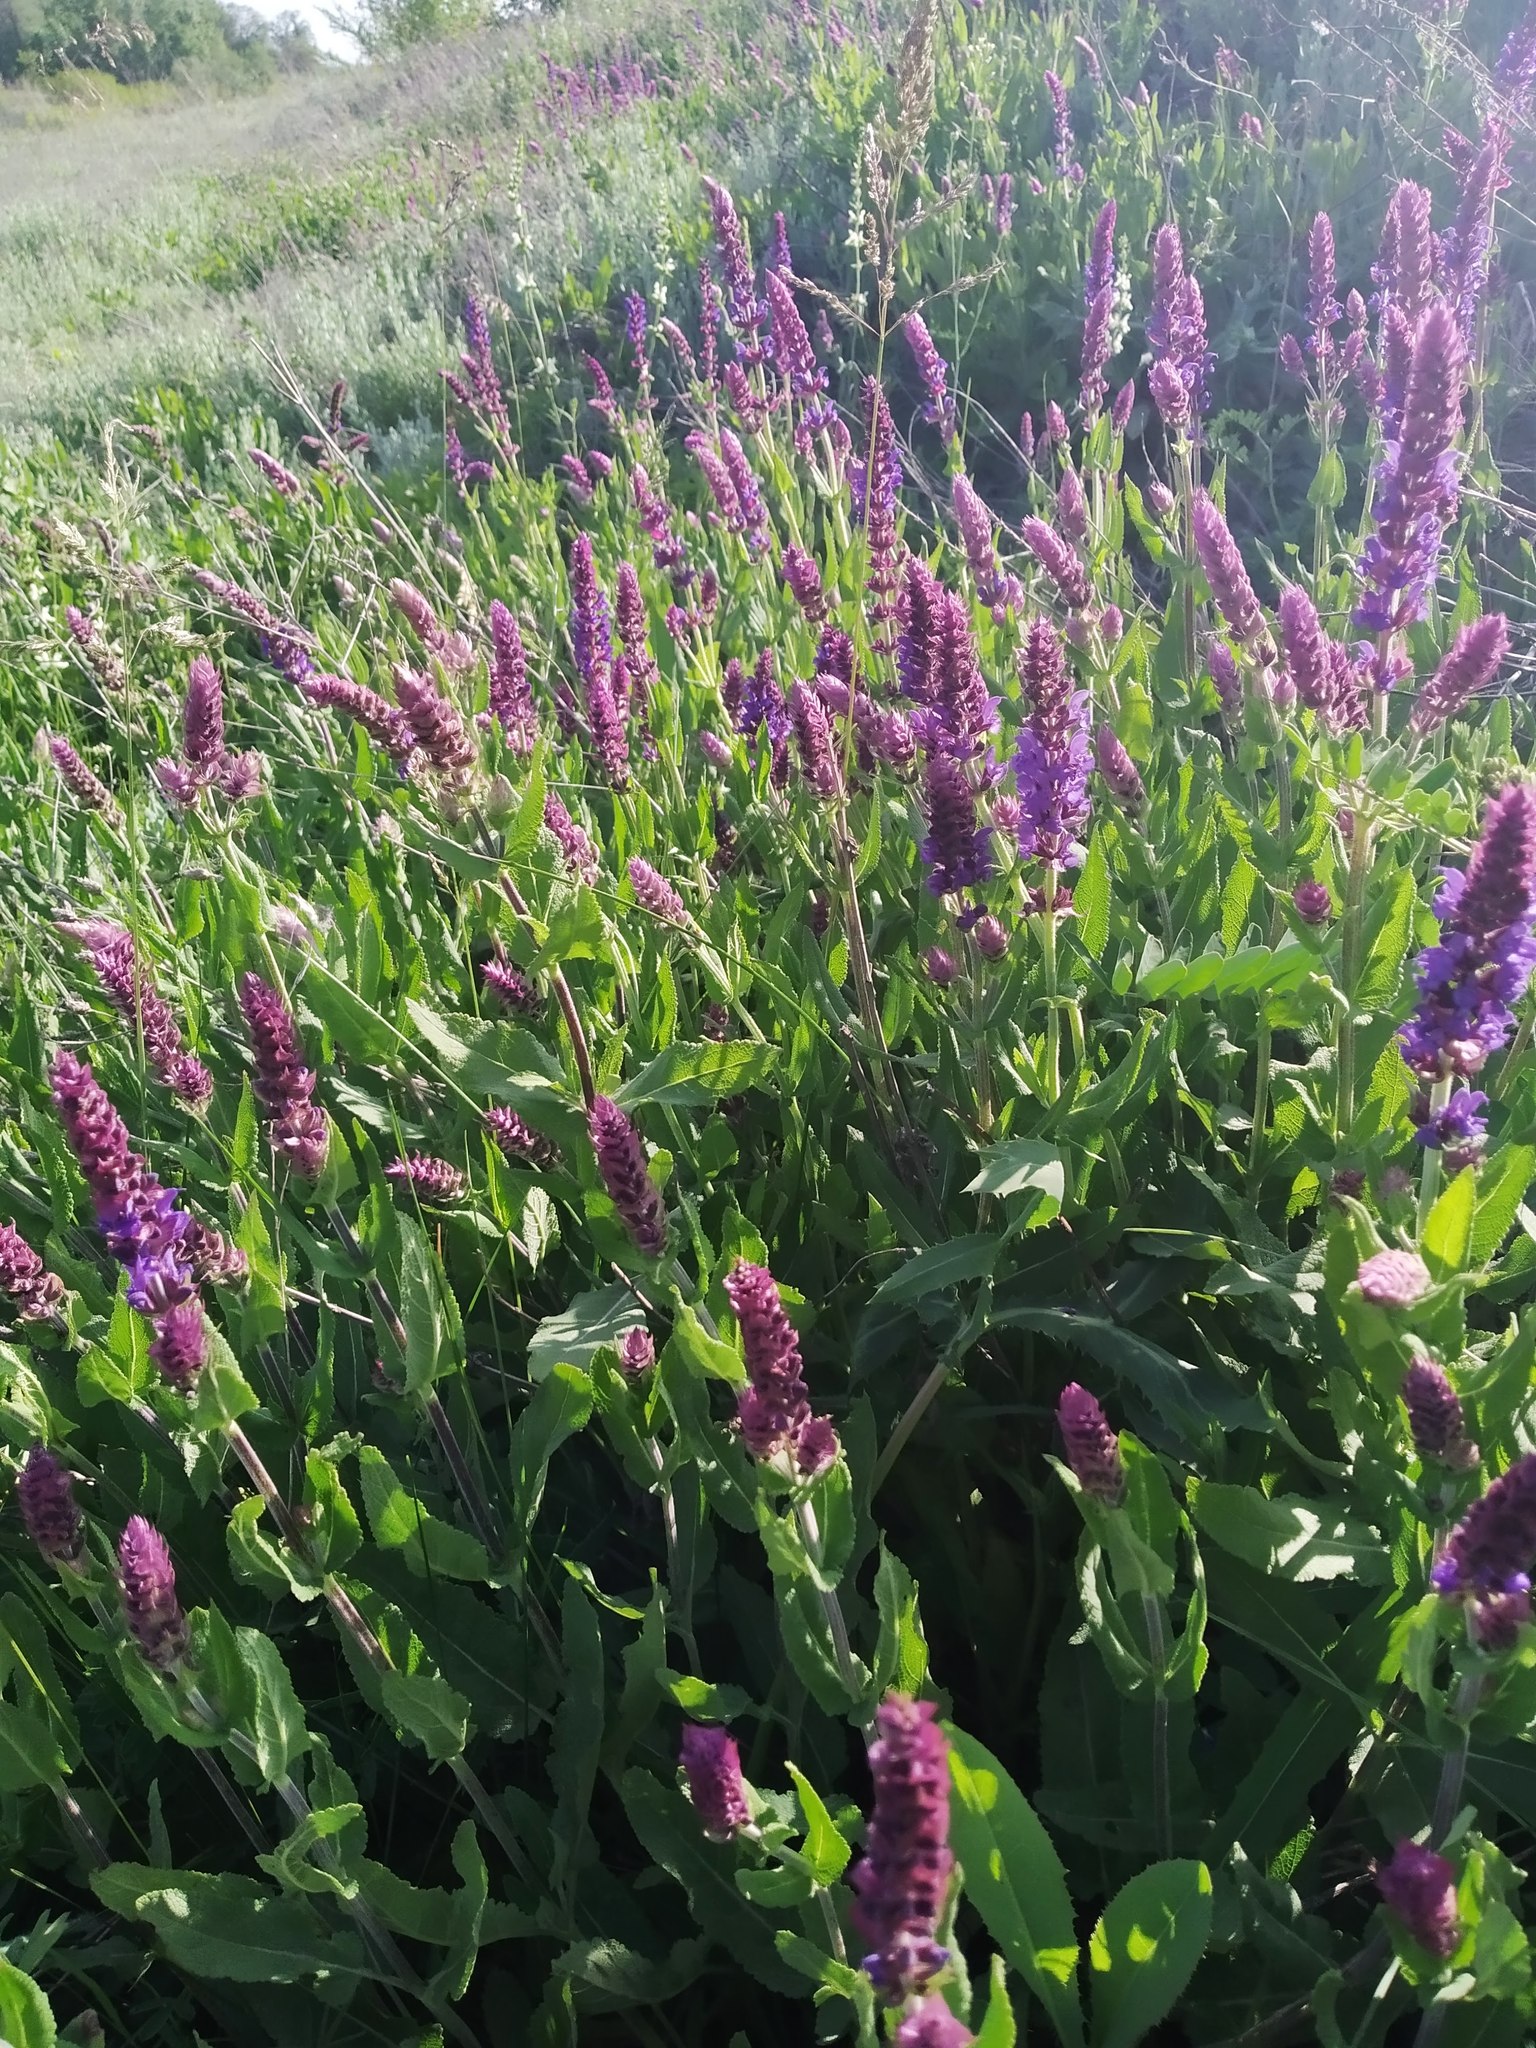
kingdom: Plantae
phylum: Tracheophyta
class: Magnoliopsida
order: Lamiales
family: Lamiaceae
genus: Salvia
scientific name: Salvia nemorosa
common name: Balkan clary
